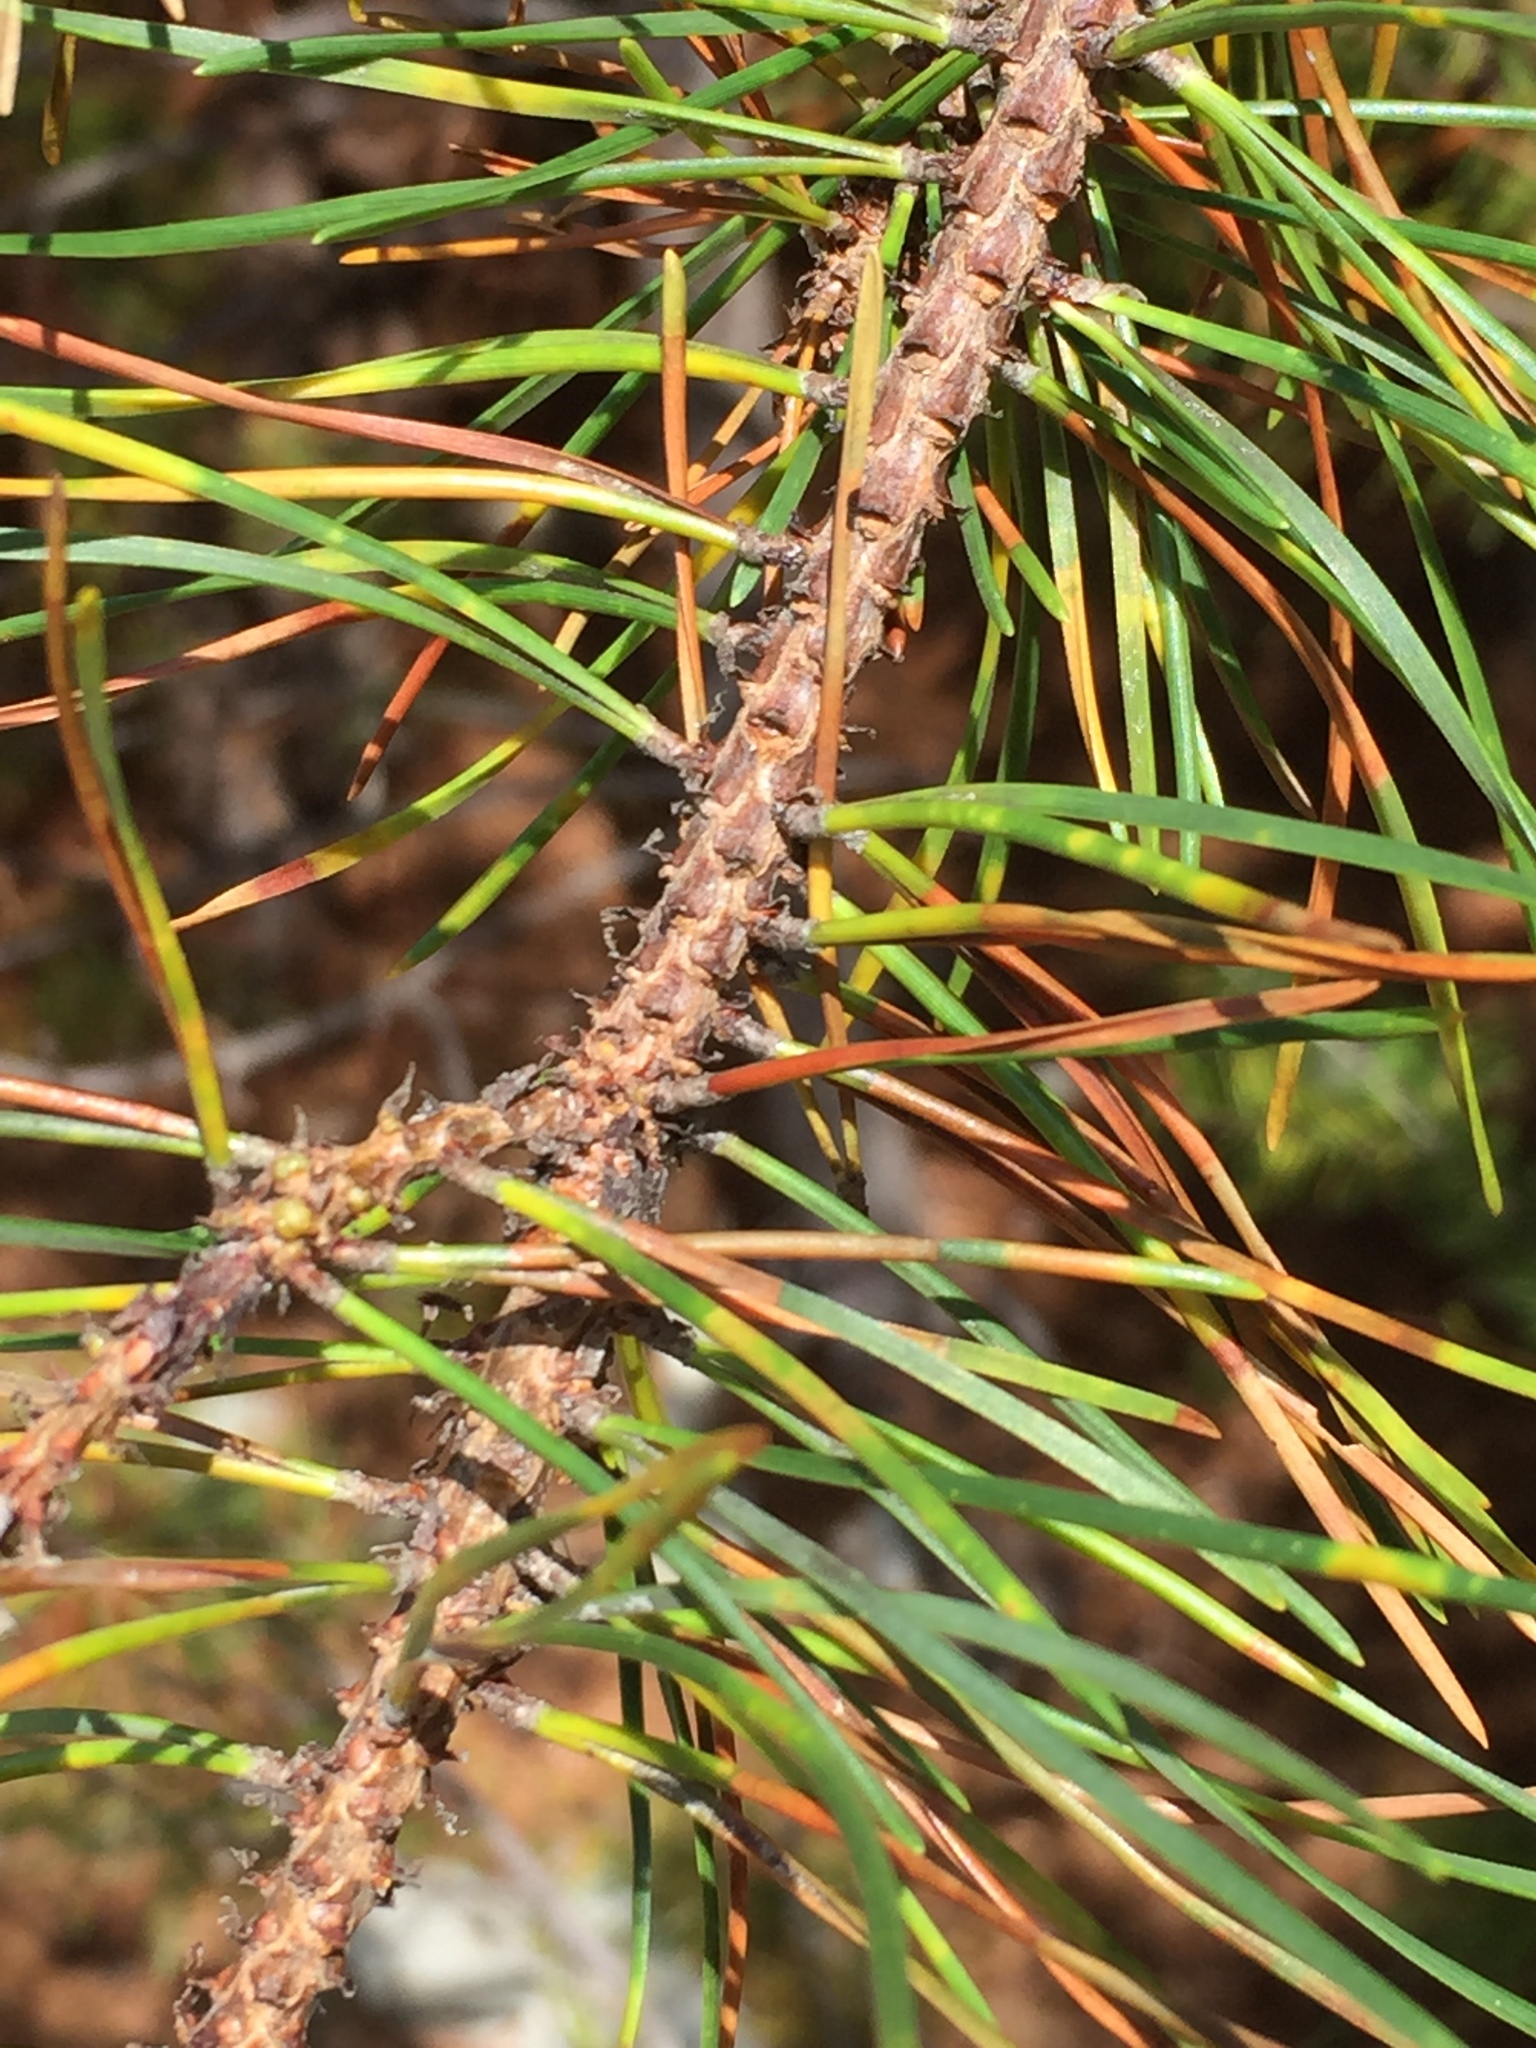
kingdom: Plantae
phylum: Tracheophyta
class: Pinopsida
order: Pinales
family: Pinaceae
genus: Pinus
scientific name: Pinus contorta
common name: Lodgepole pine
